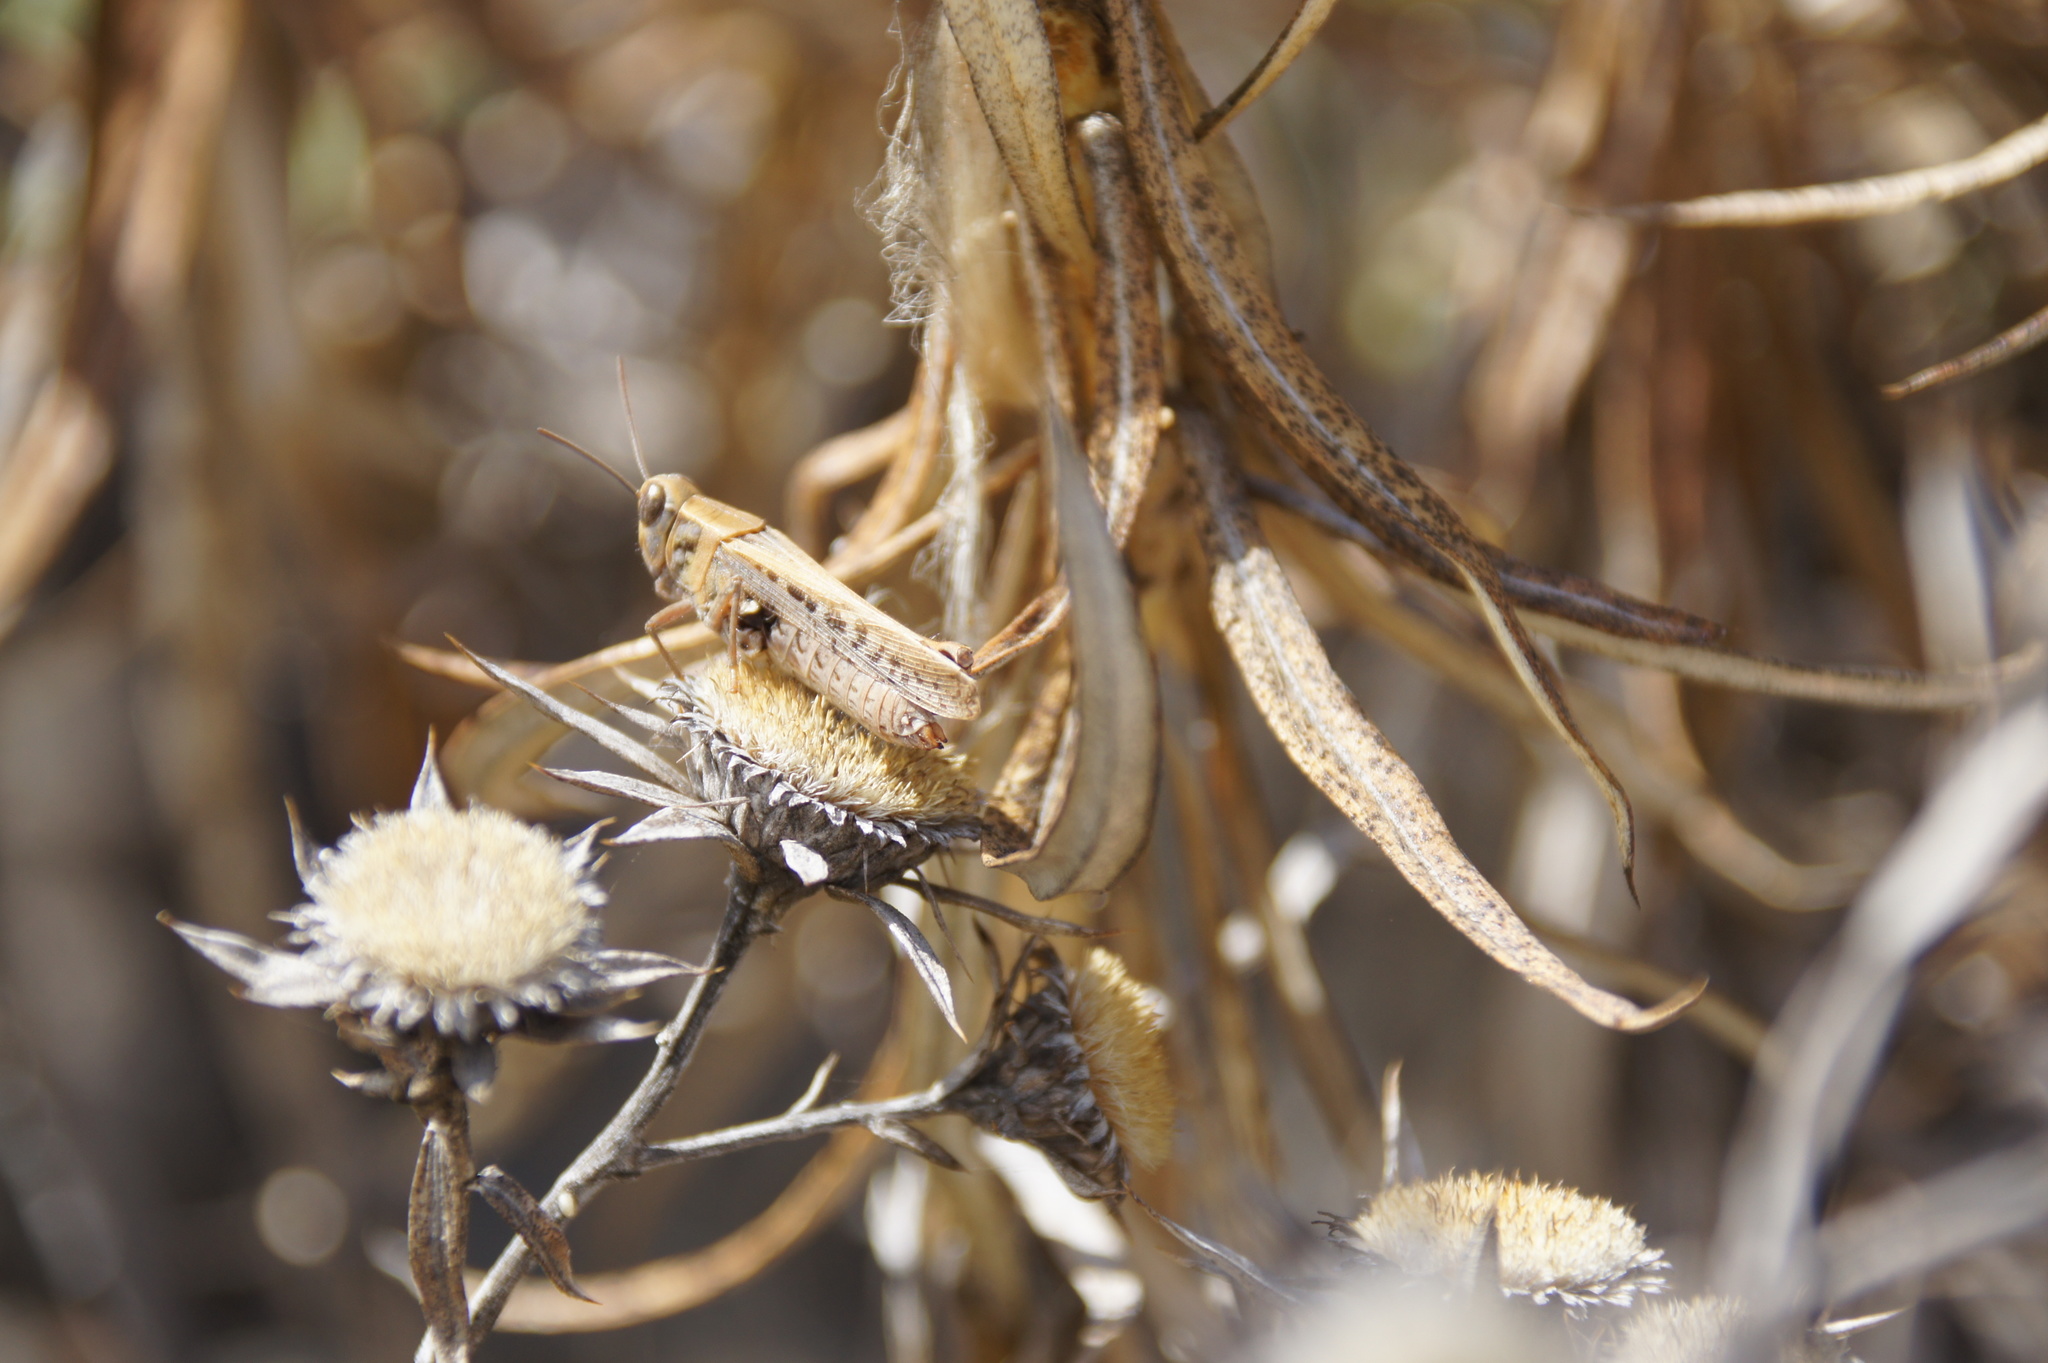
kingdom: Animalia
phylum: Arthropoda
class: Insecta
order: Orthoptera
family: Acrididae
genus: Calliptamus
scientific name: Calliptamus plebeius
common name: Canarian pincer grasshopper
